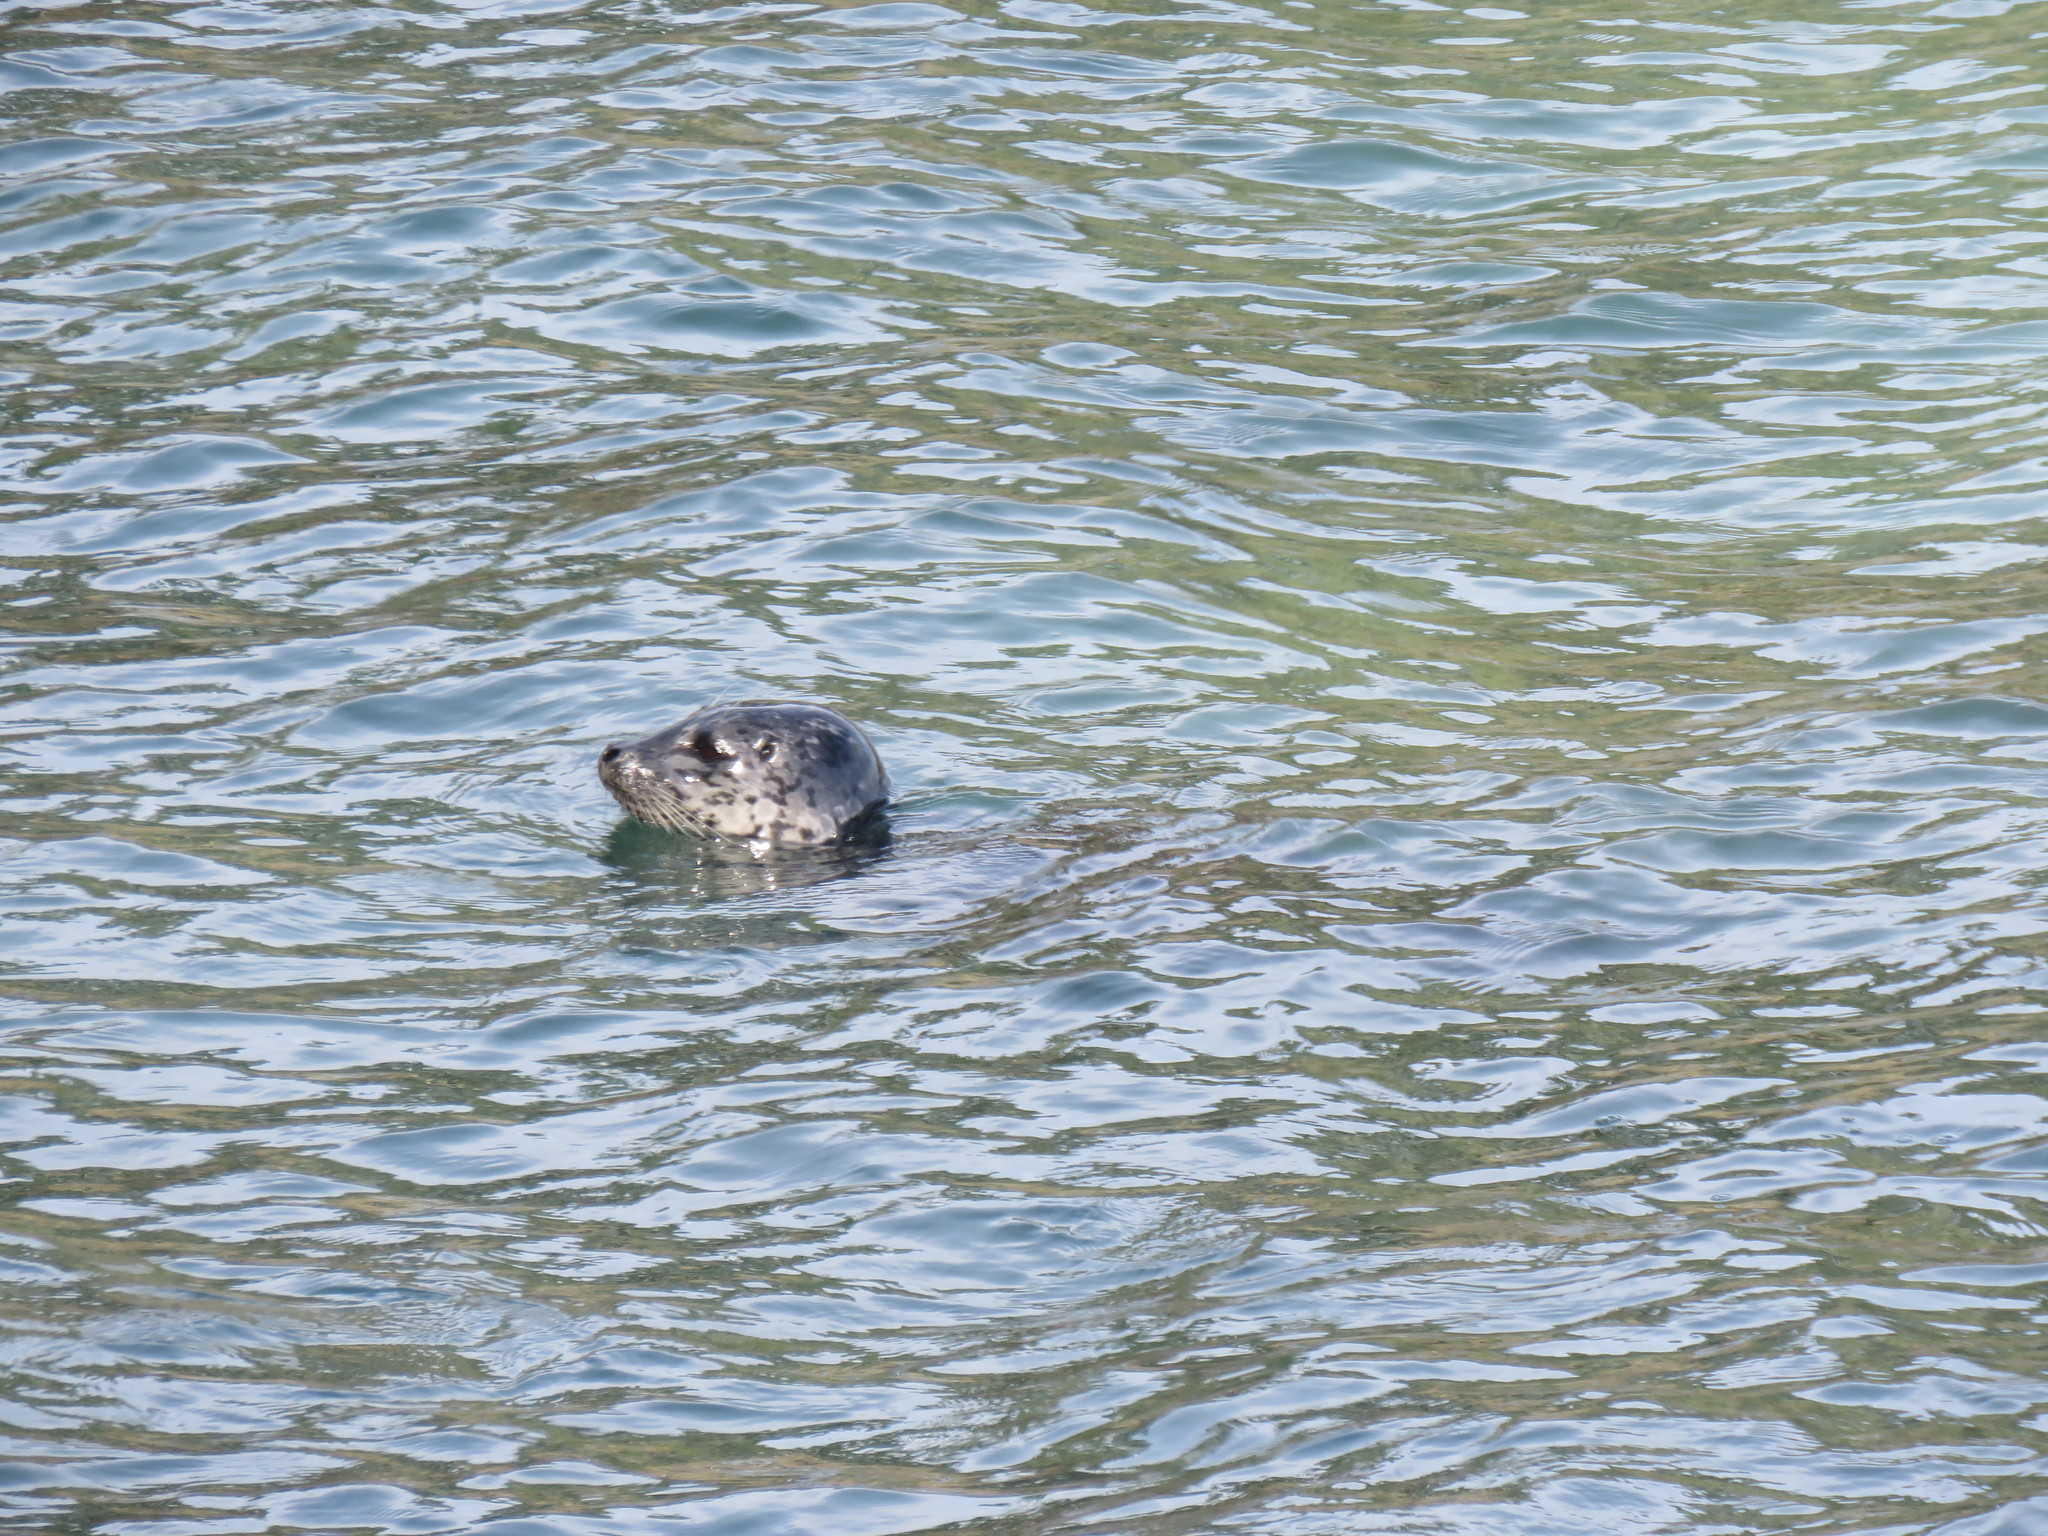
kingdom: Animalia
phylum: Chordata
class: Mammalia
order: Carnivora
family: Phocidae
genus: Phoca
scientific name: Phoca vitulina
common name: Harbor seal
